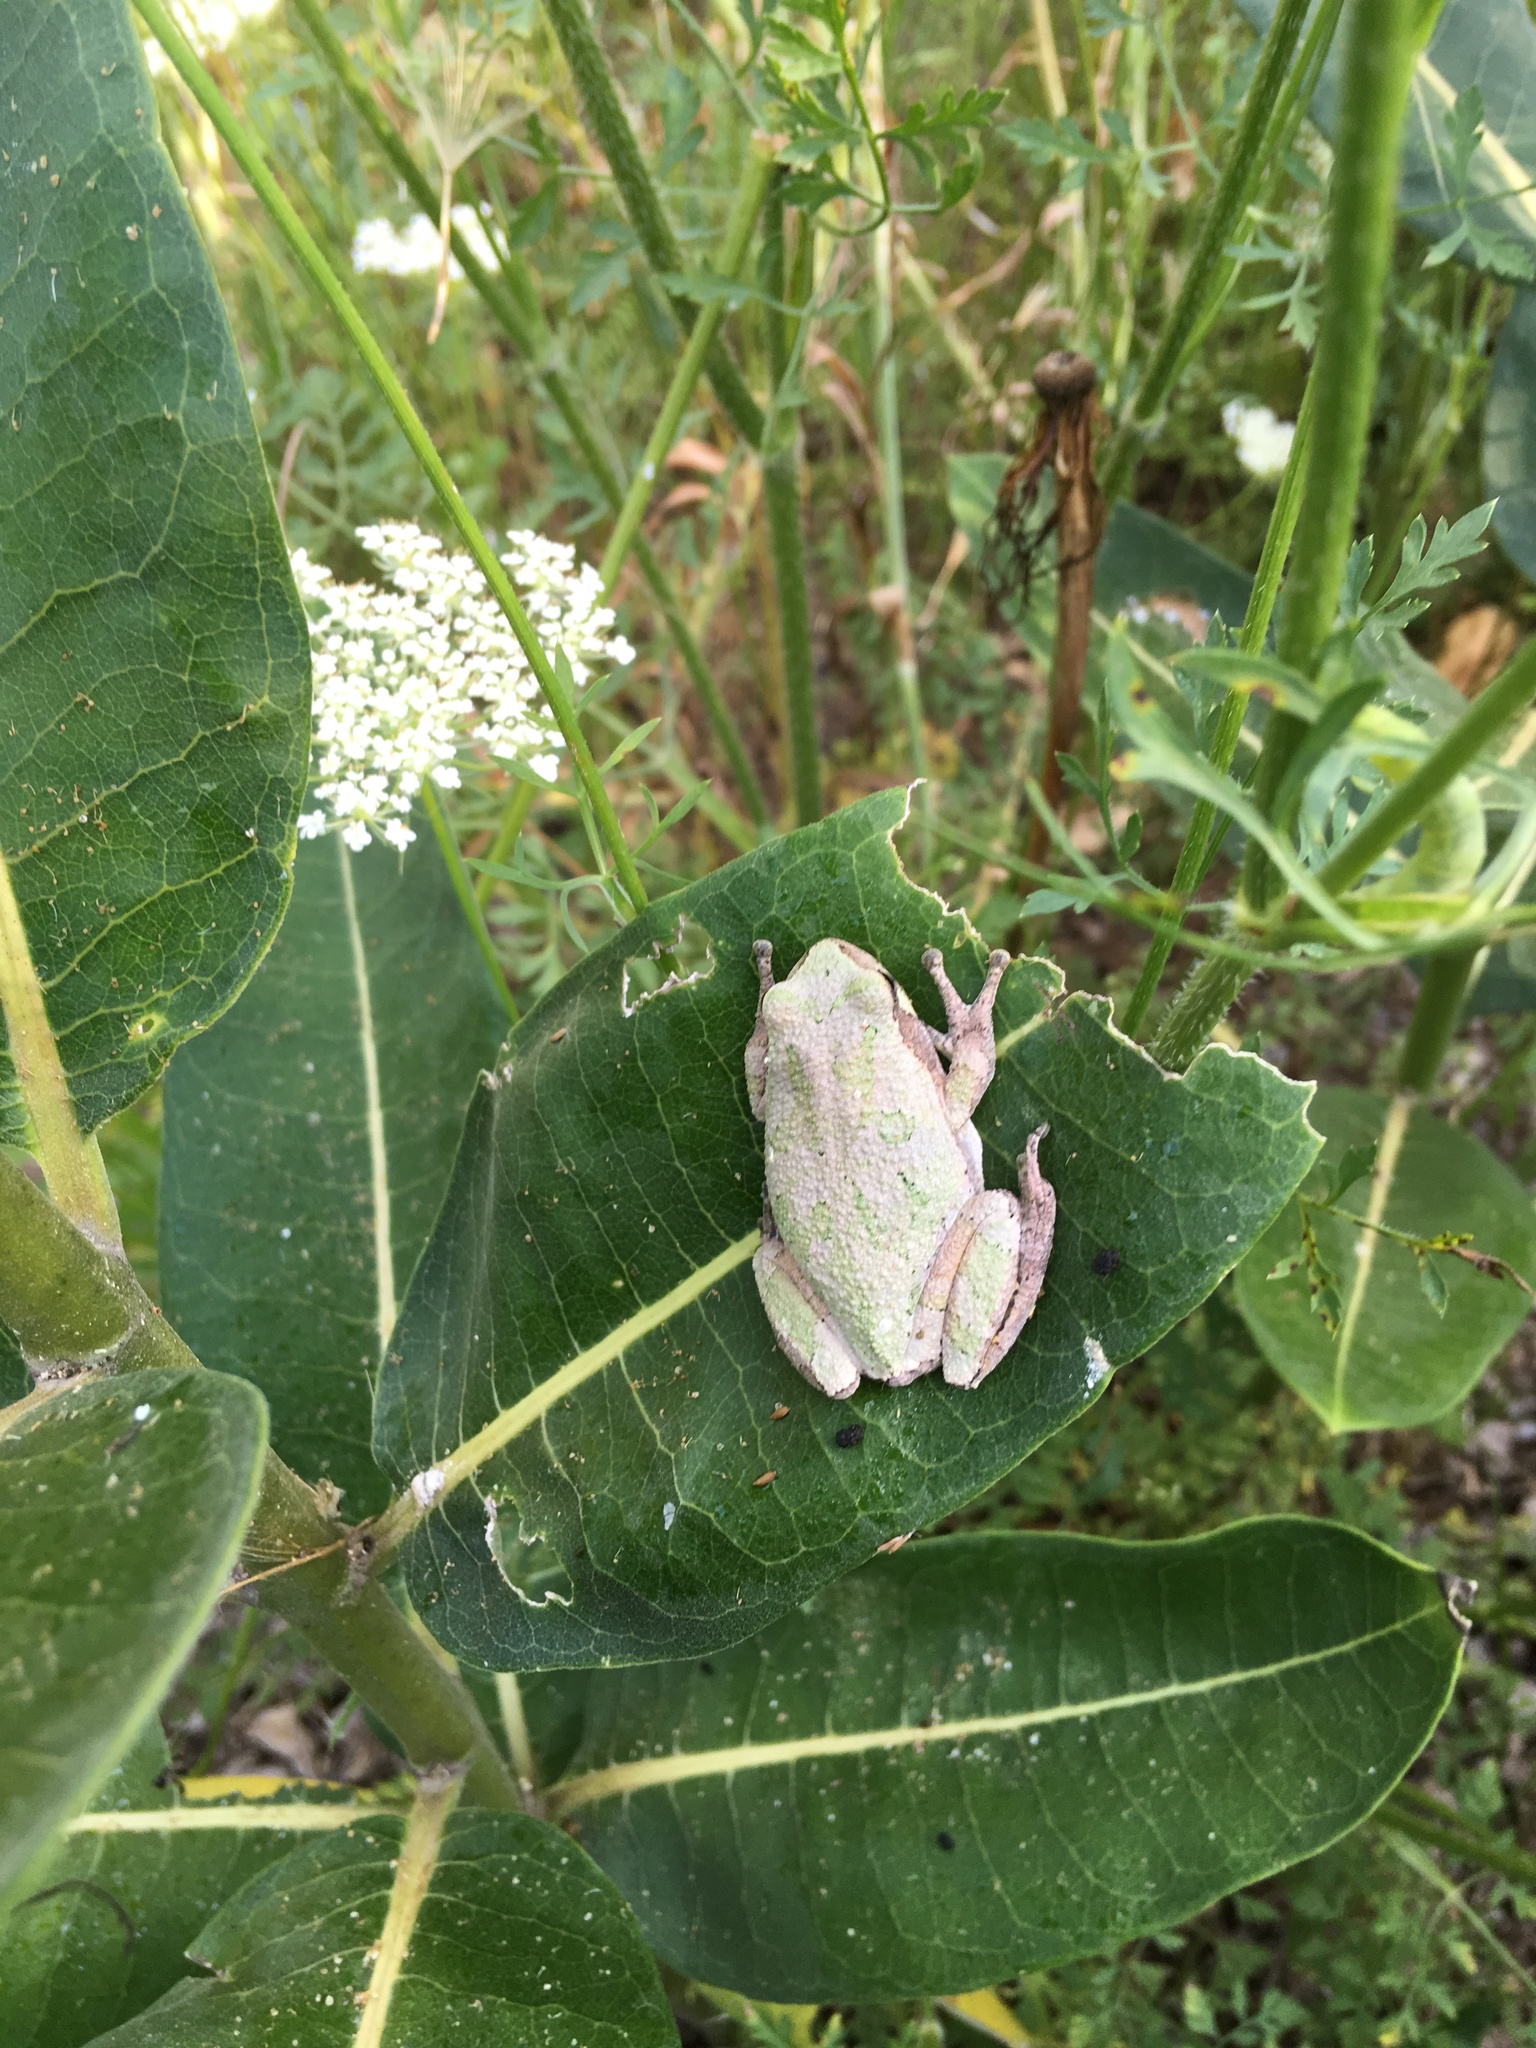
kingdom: Animalia
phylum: Chordata
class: Amphibia
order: Anura
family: Hylidae
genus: Dryophytes
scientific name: Dryophytes chrysoscelis
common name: Cope's gray treefrog
